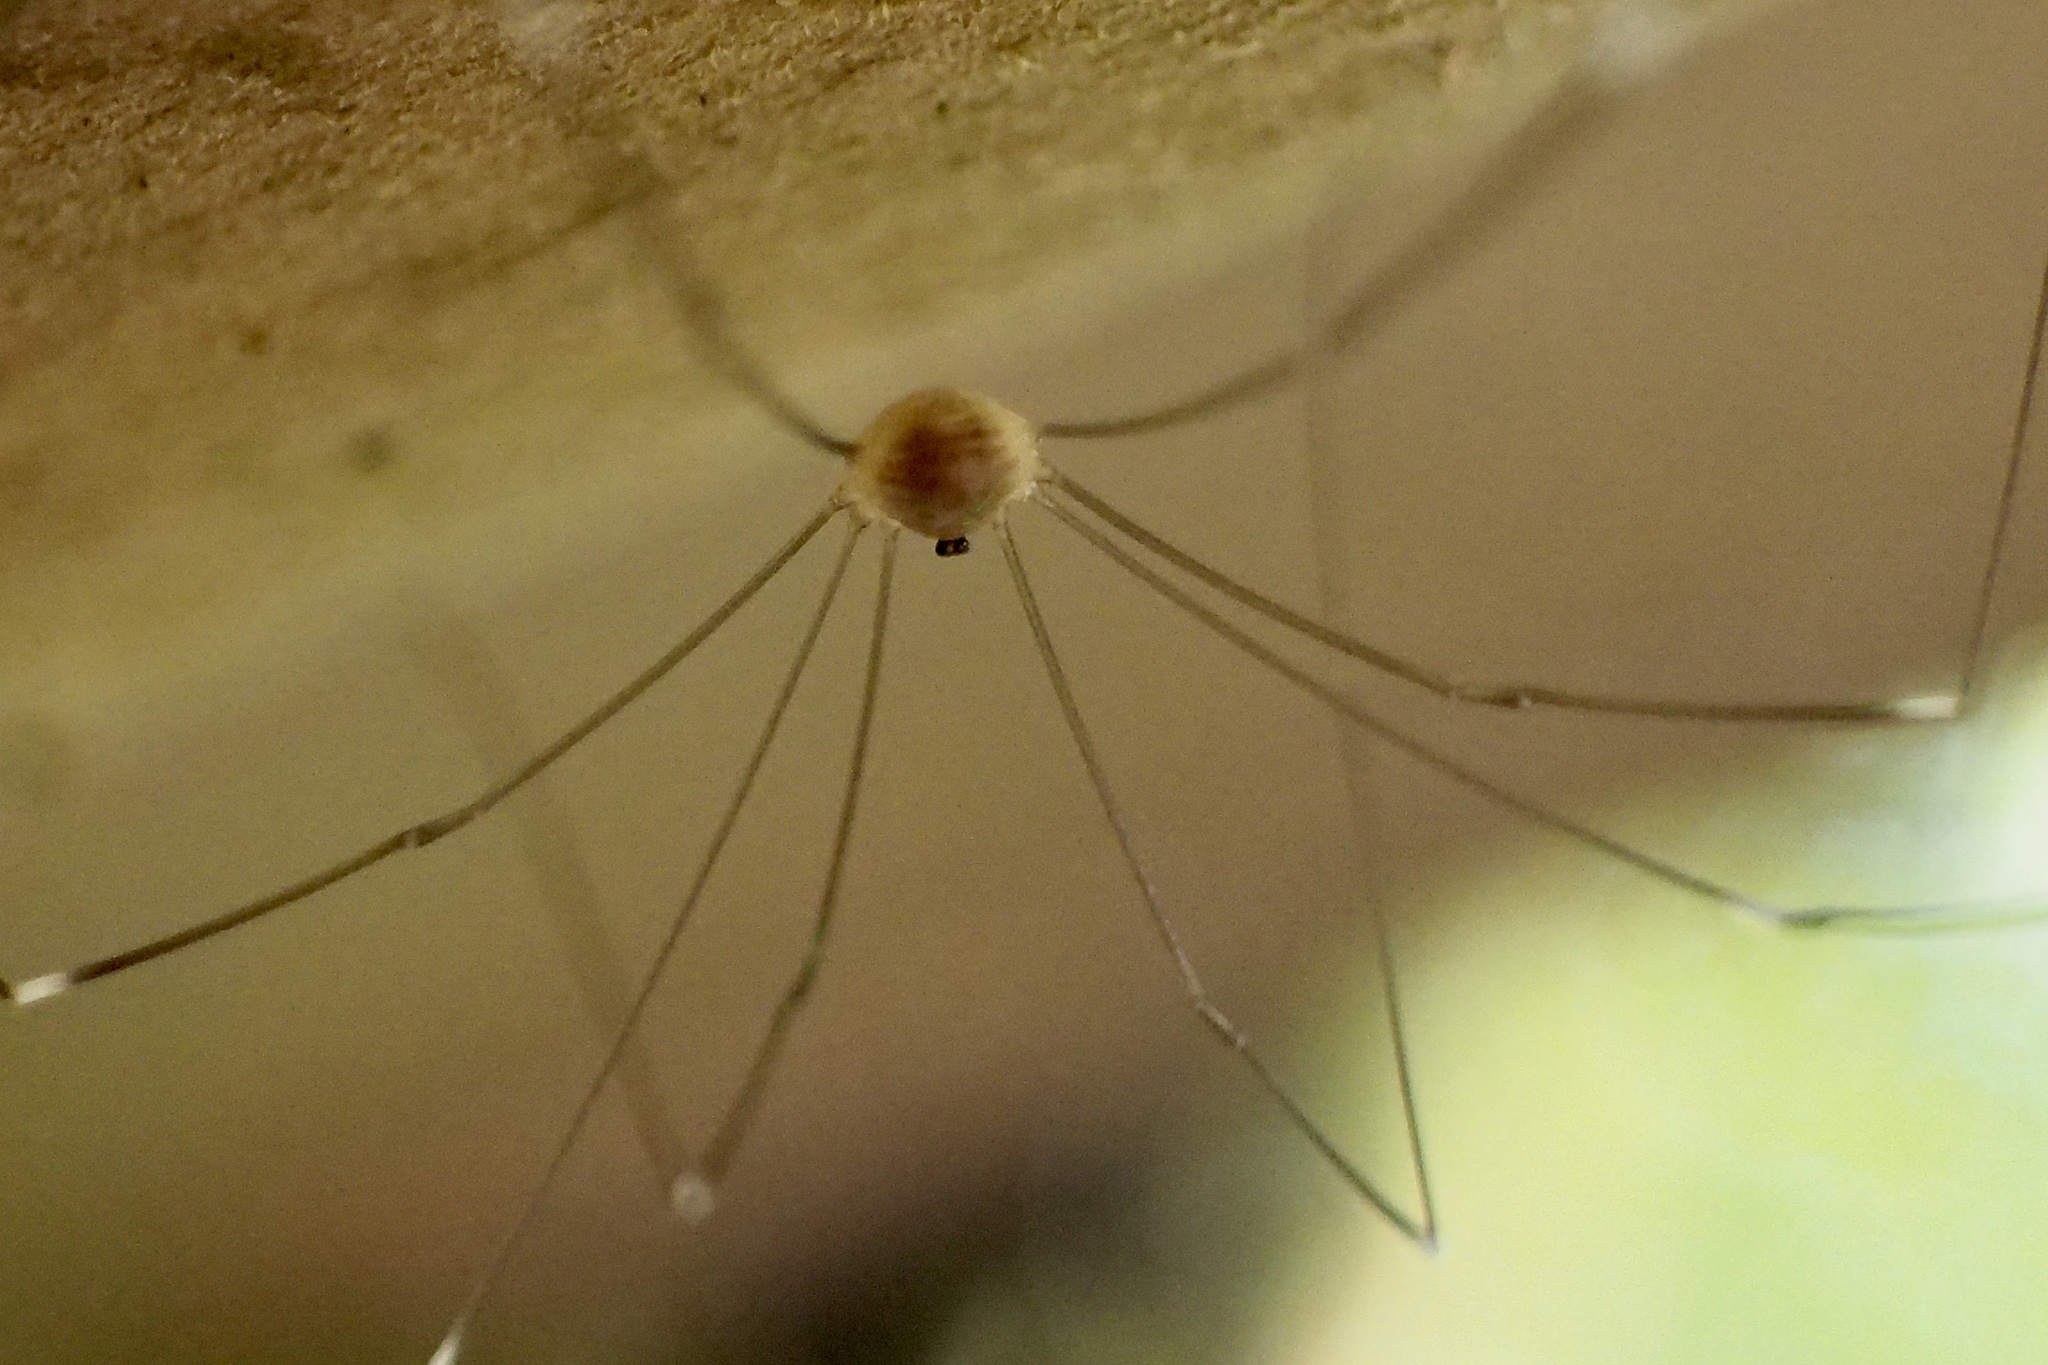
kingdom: Animalia
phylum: Arthropoda
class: Arachnida
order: Opiliones
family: Sclerosomatidae
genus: Leiobunum
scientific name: Leiobunum japonicum
